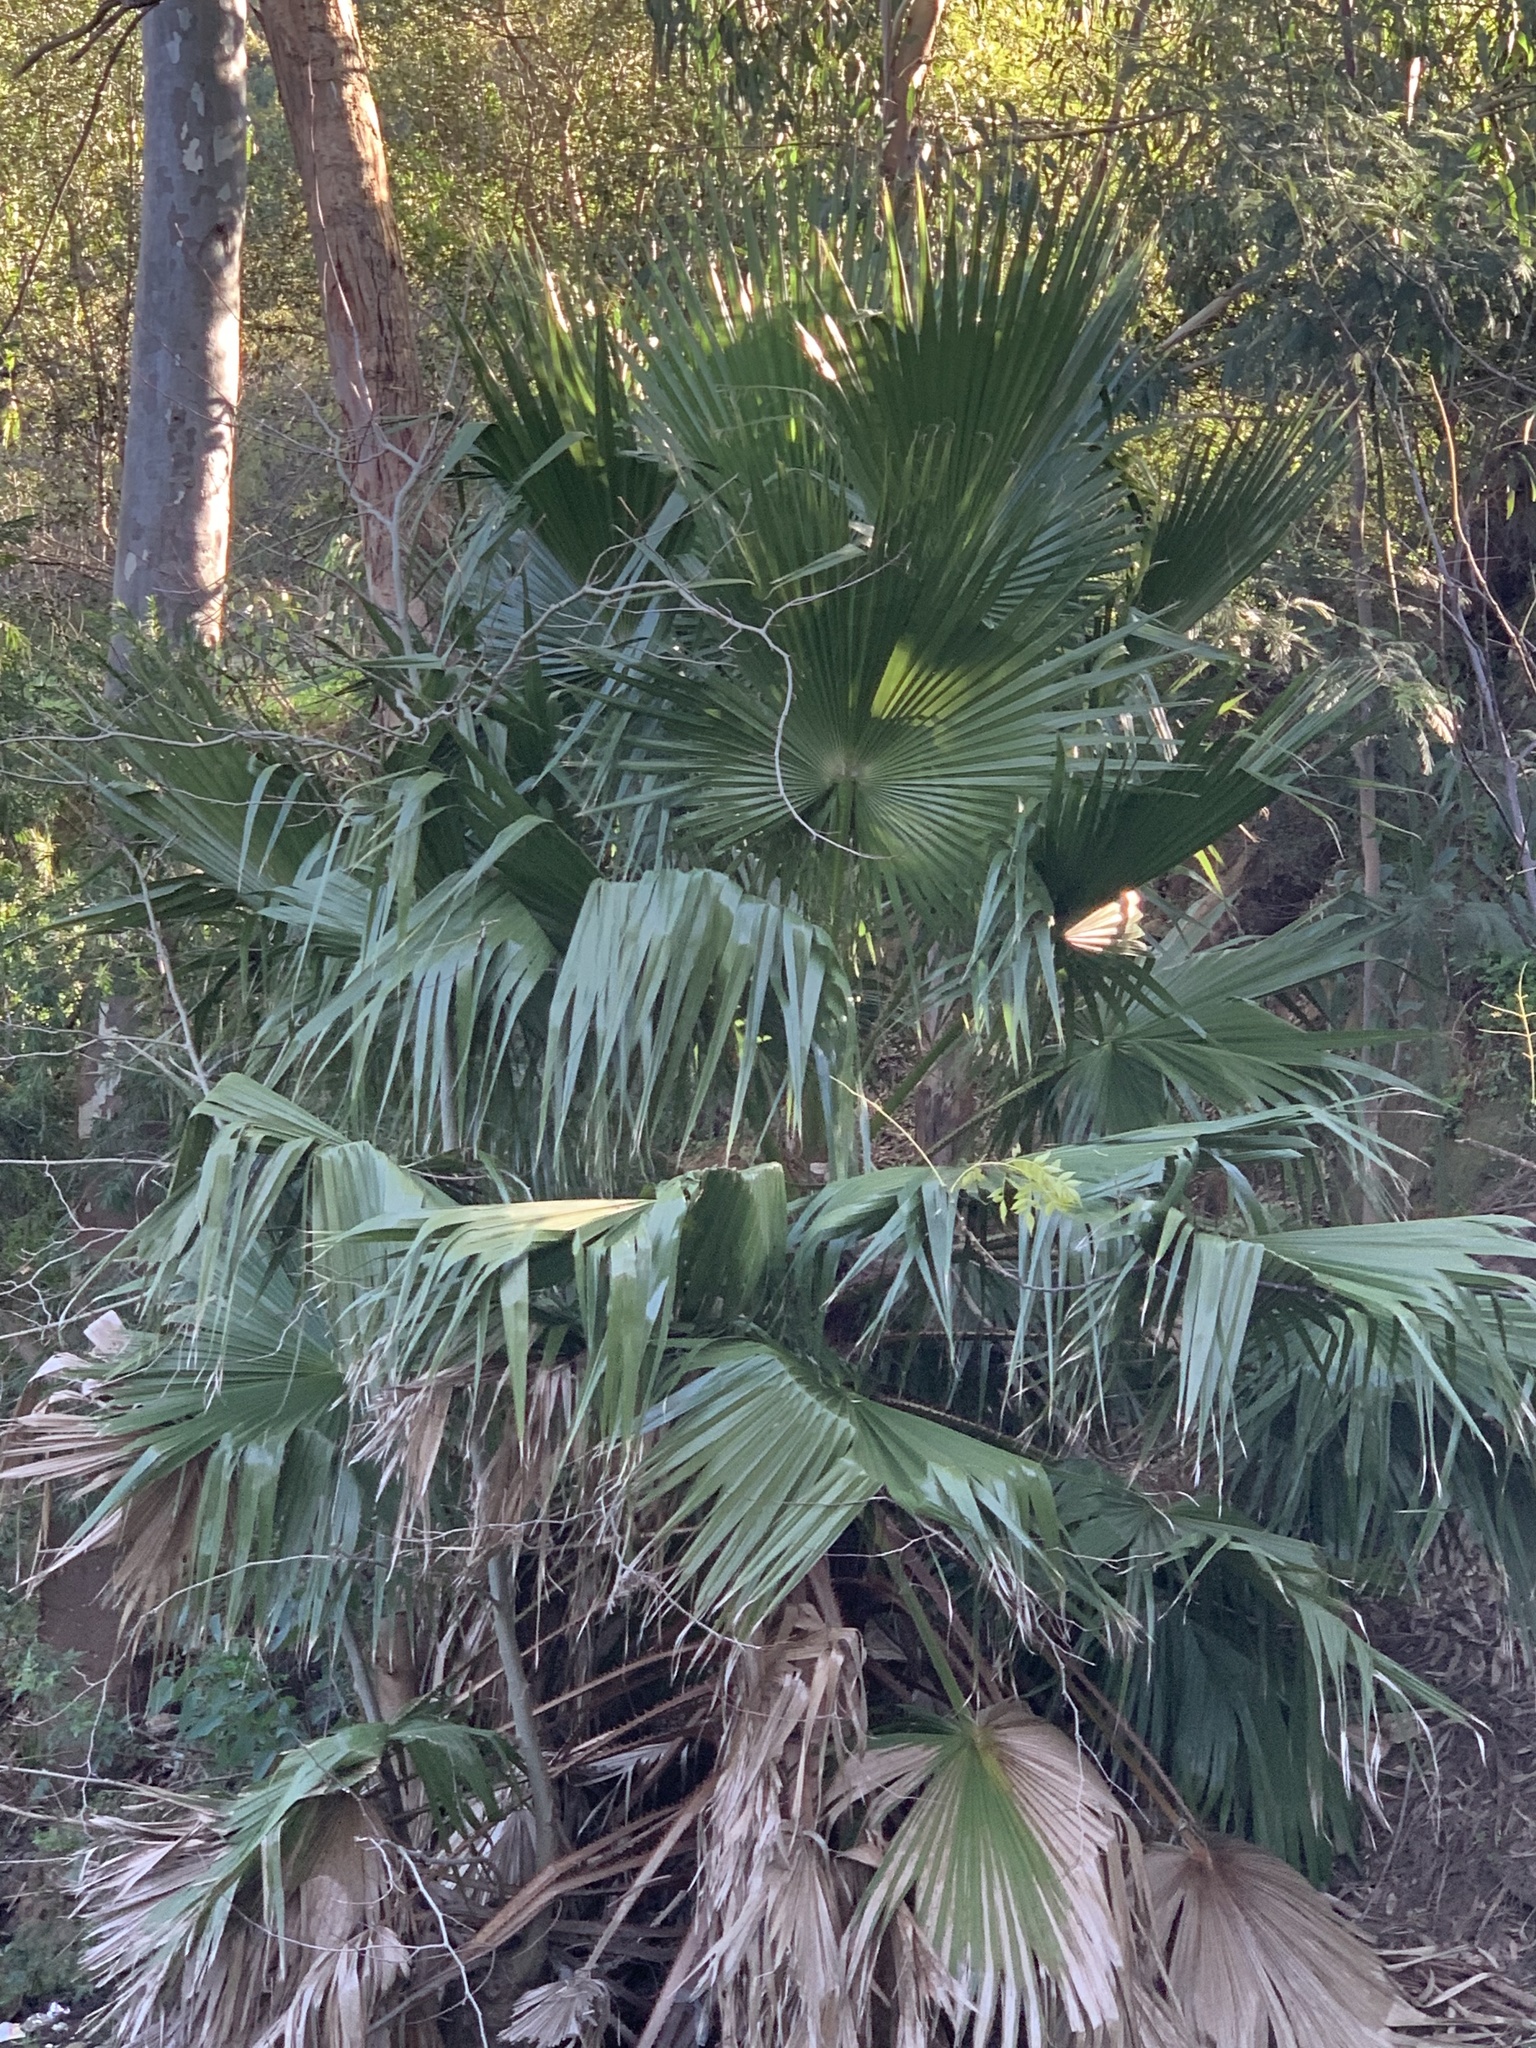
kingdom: Plantae
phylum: Tracheophyta
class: Liliopsida
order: Arecales
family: Arecaceae
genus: Washingtonia
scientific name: Washingtonia robusta
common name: Mexican fan palm
